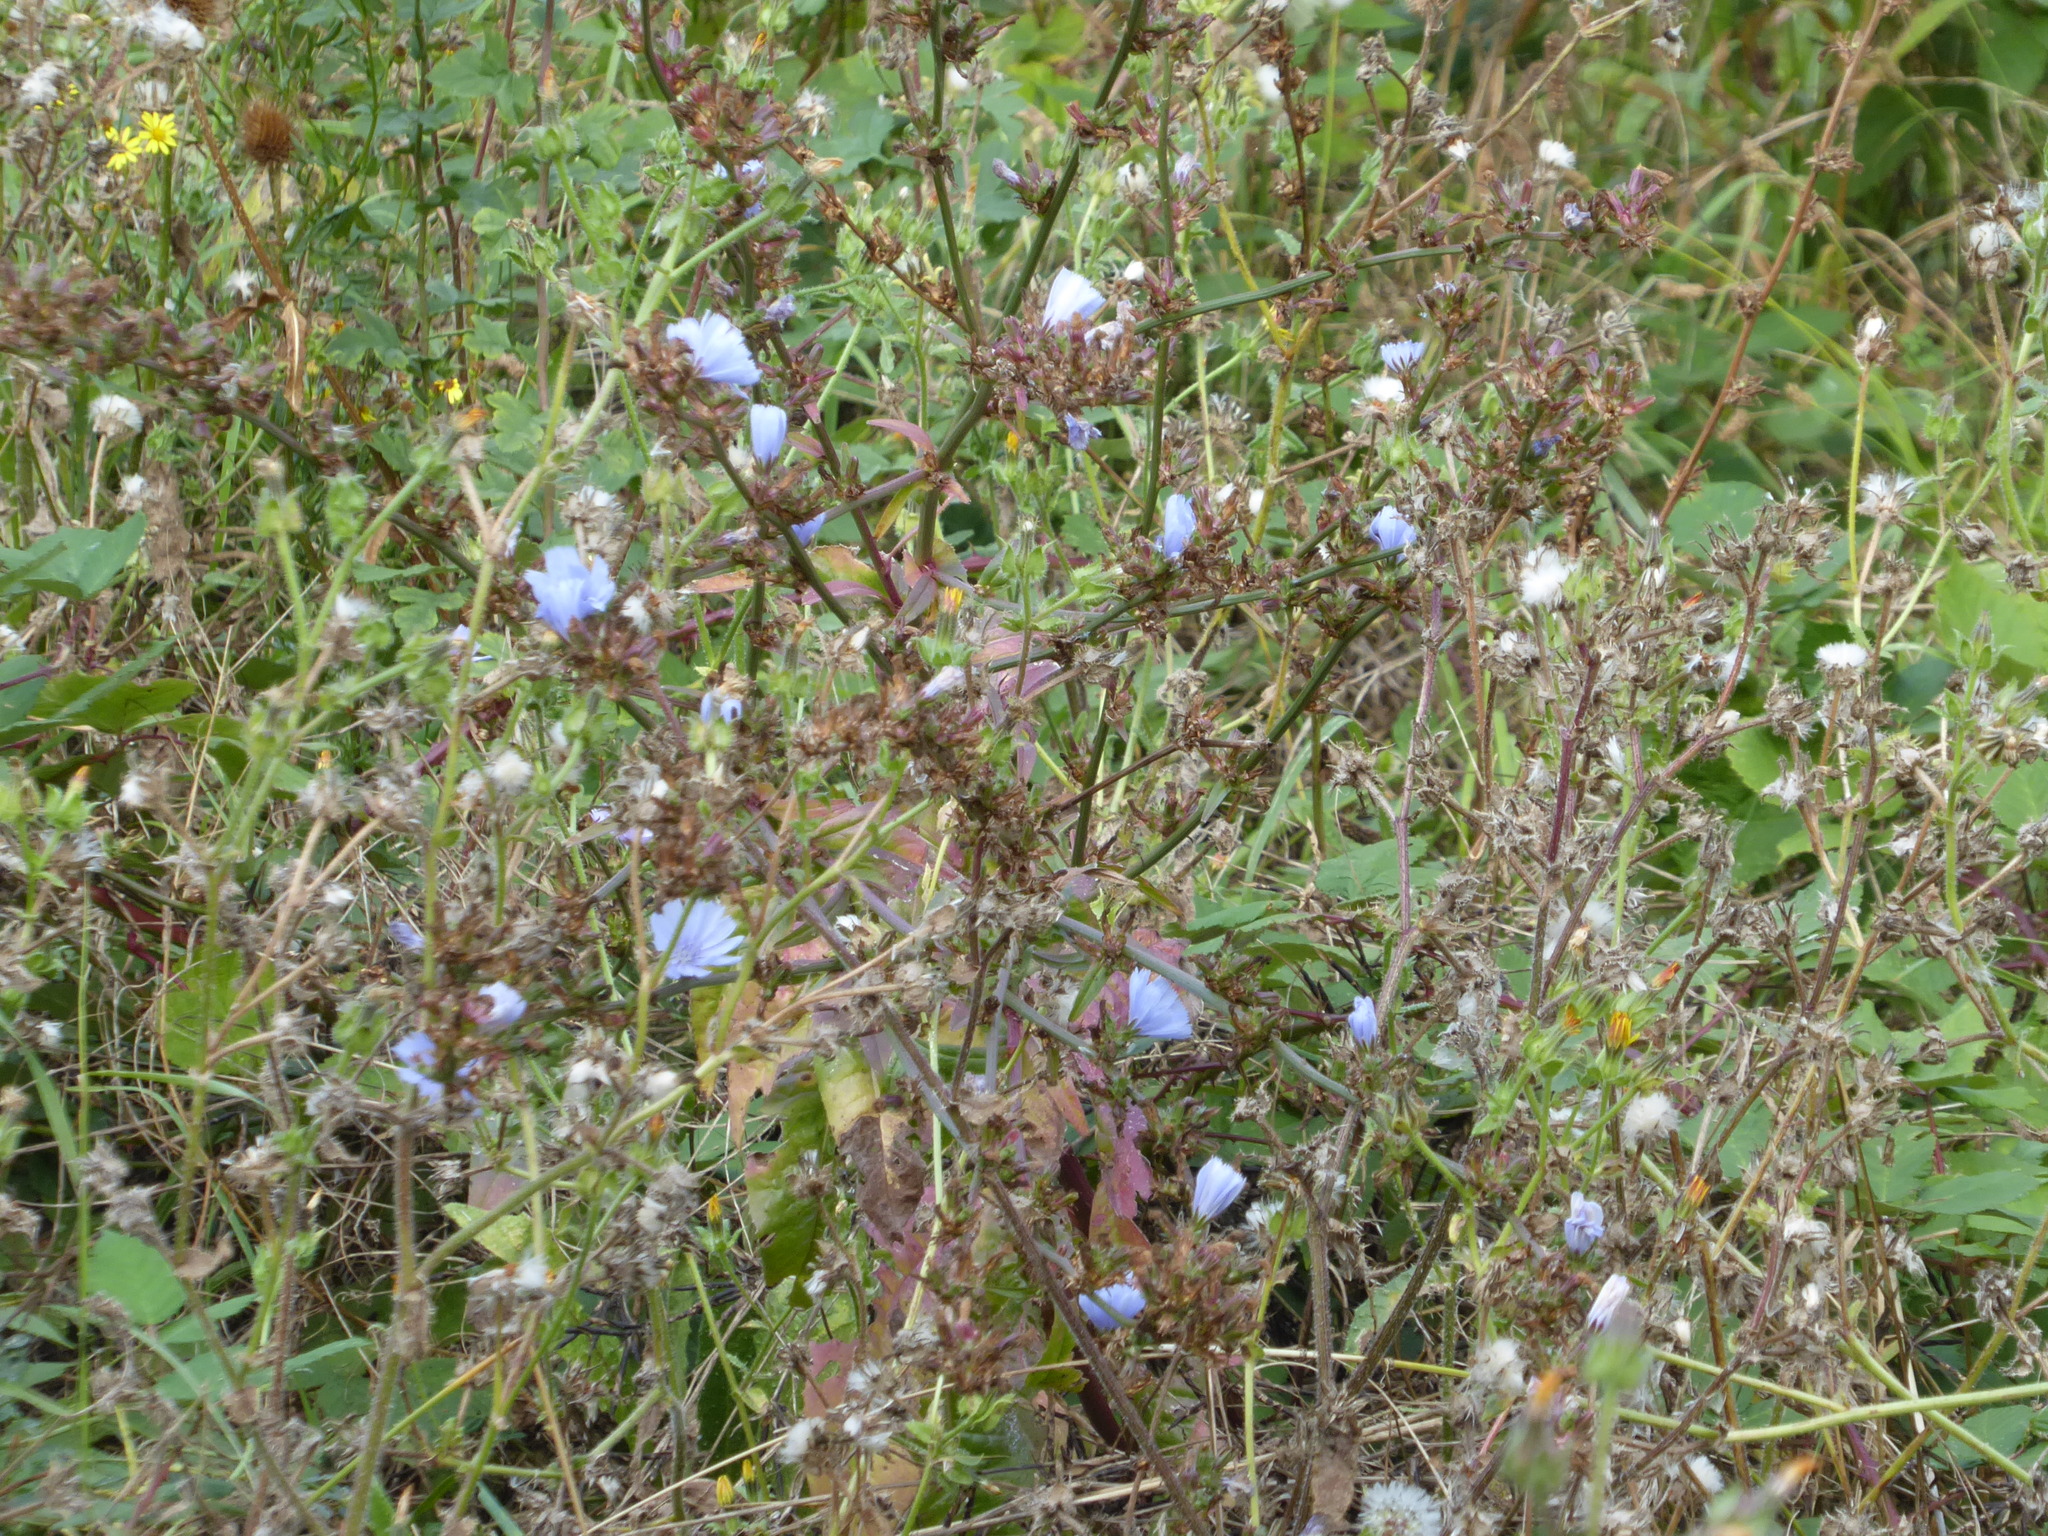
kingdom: Plantae
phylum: Tracheophyta
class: Magnoliopsida
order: Asterales
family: Asteraceae
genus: Cichorium
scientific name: Cichorium intybus
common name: Chicory
